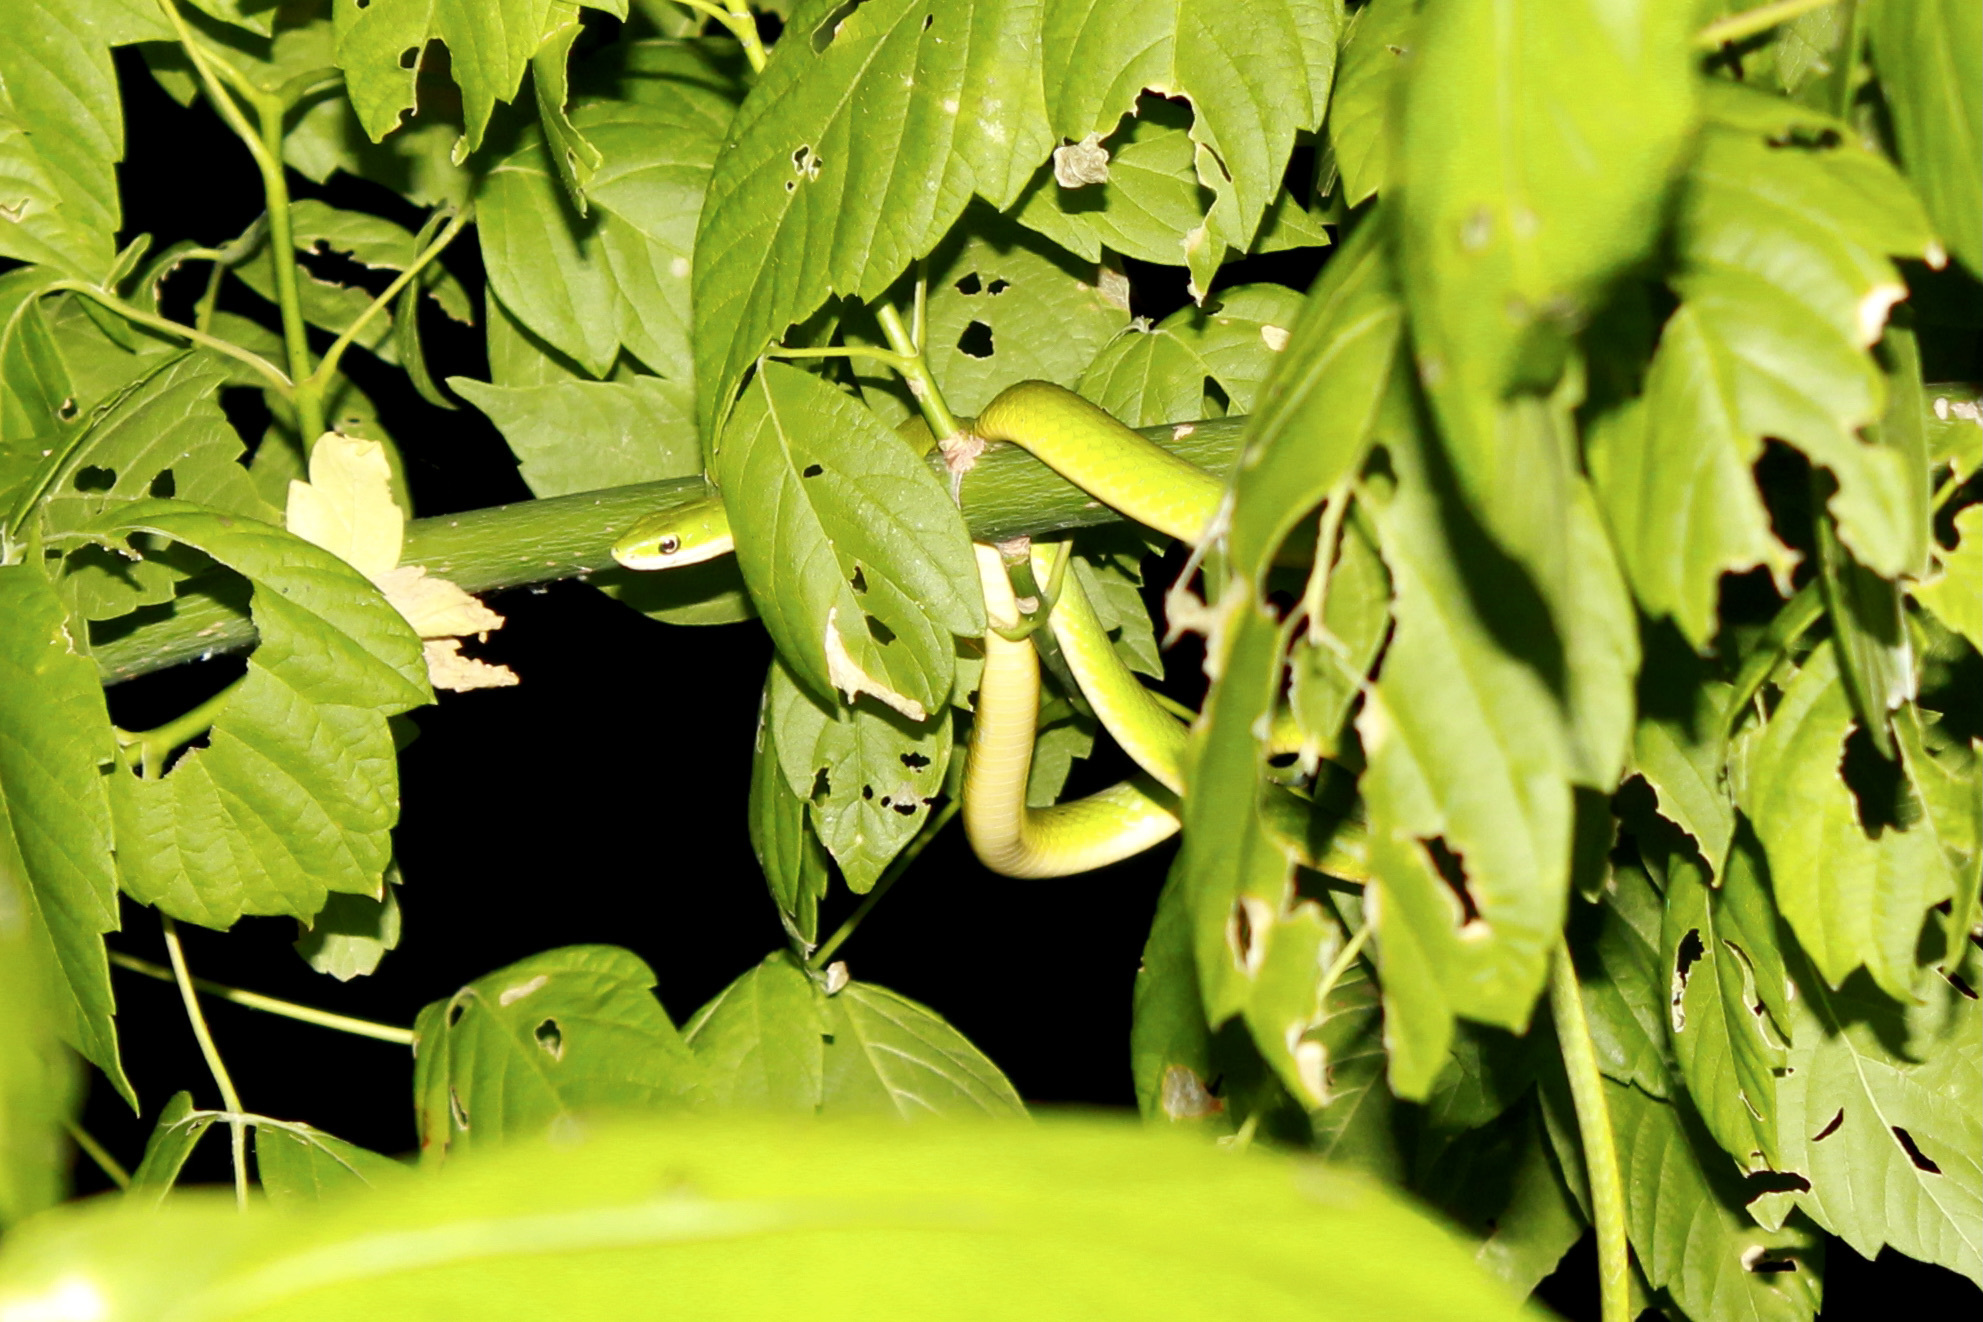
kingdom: Animalia
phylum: Chordata
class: Squamata
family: Colubridae
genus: Opheodrys
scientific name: Opheodrys aestivus
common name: Rough greensnake
